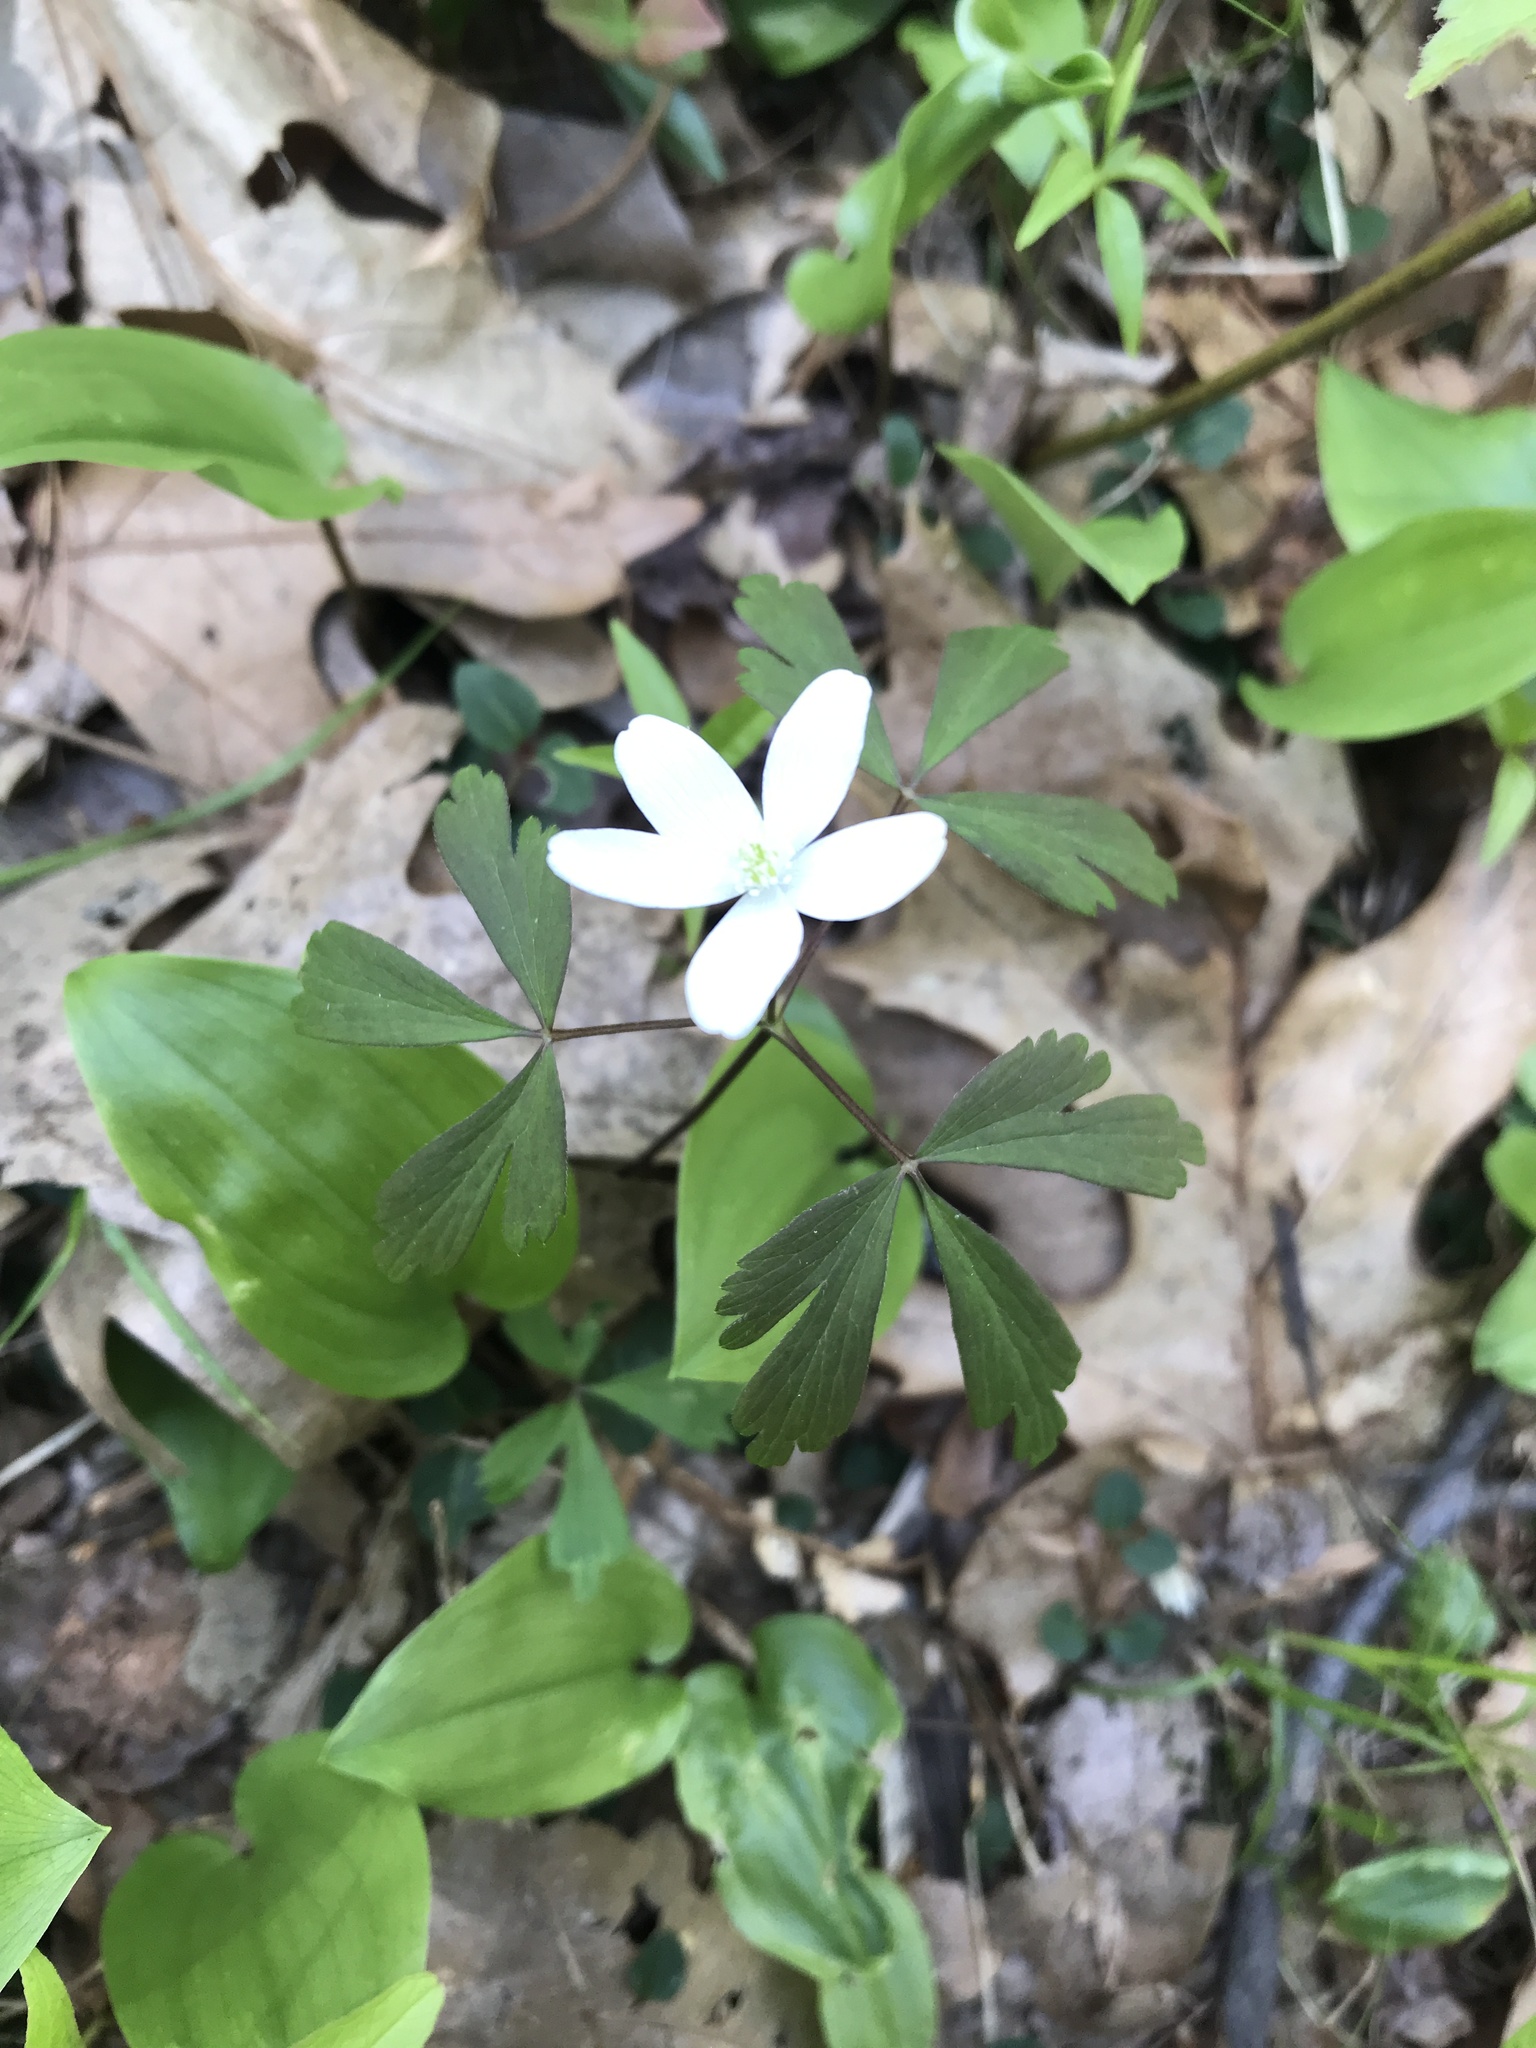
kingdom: Plantae
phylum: Tracheophyta
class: Magnoliopsida
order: Ranunculales
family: Ranunculaceae
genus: Anemone
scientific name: Anemone quinquefolia
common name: Wood anemone
